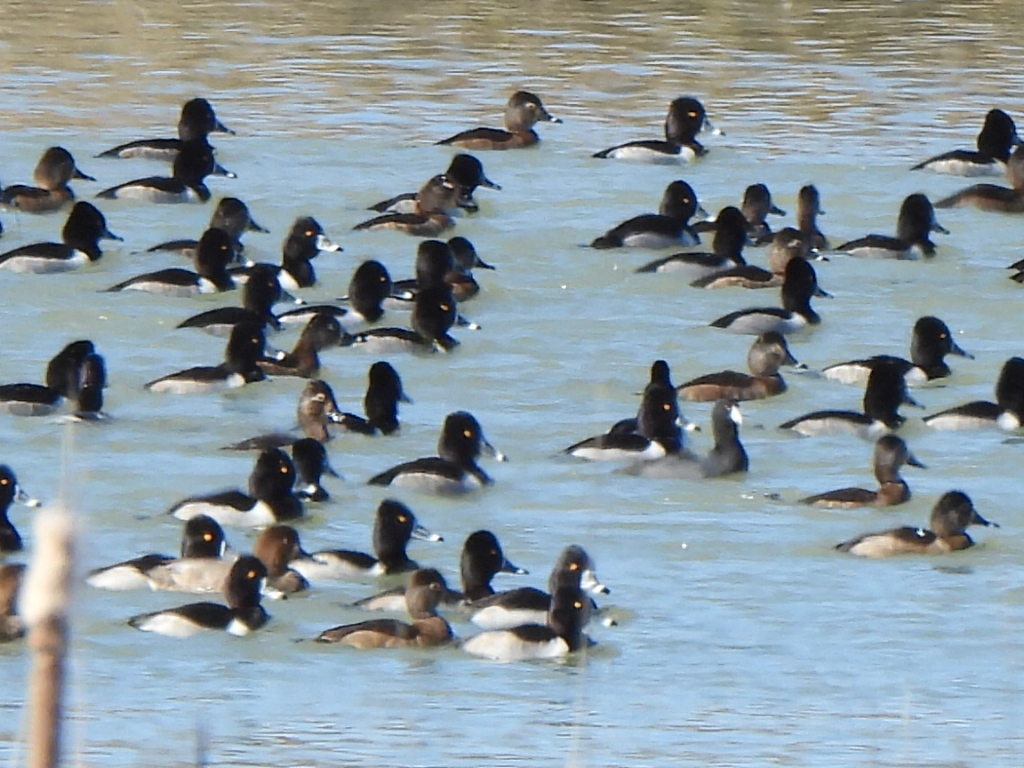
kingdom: Animalia
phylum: Chordata
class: Aves
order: Anseriformes
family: Anatidae
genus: Aythya
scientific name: Aythya collaris
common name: Ring-necked duck
